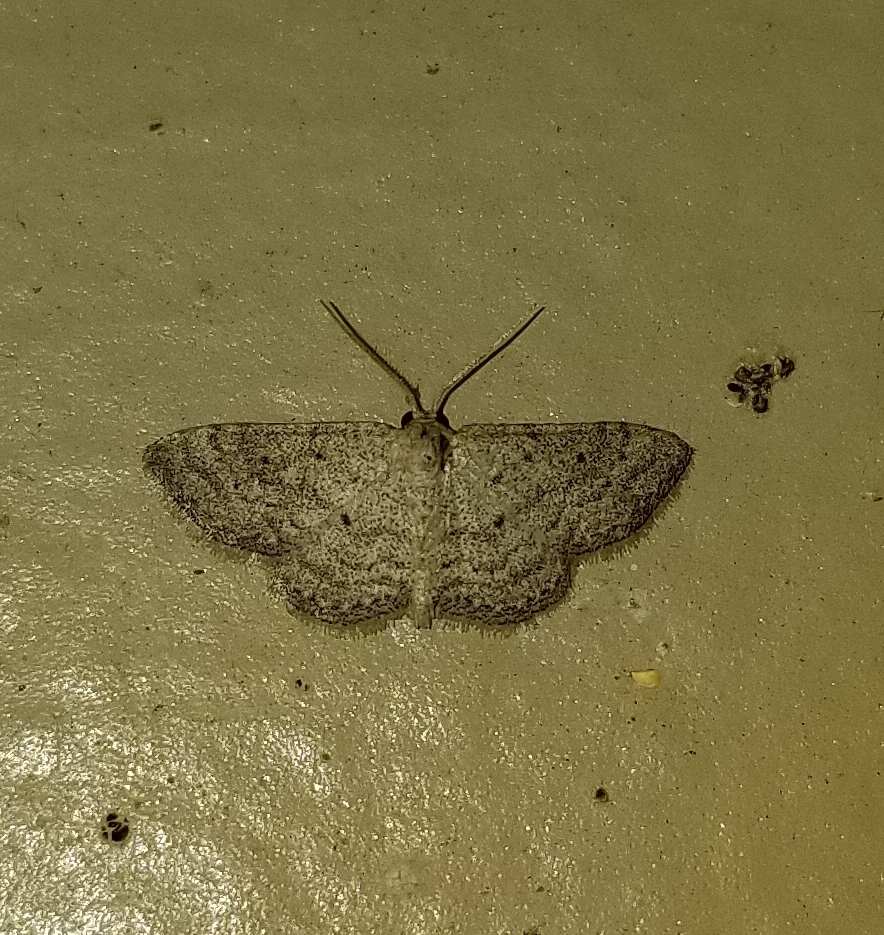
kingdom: Animalia
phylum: Arthropoda
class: Insecta
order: Lepidoptera
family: Geometridae
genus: Lobocleta
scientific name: Lobocleta ossularia
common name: Drab brown wave
